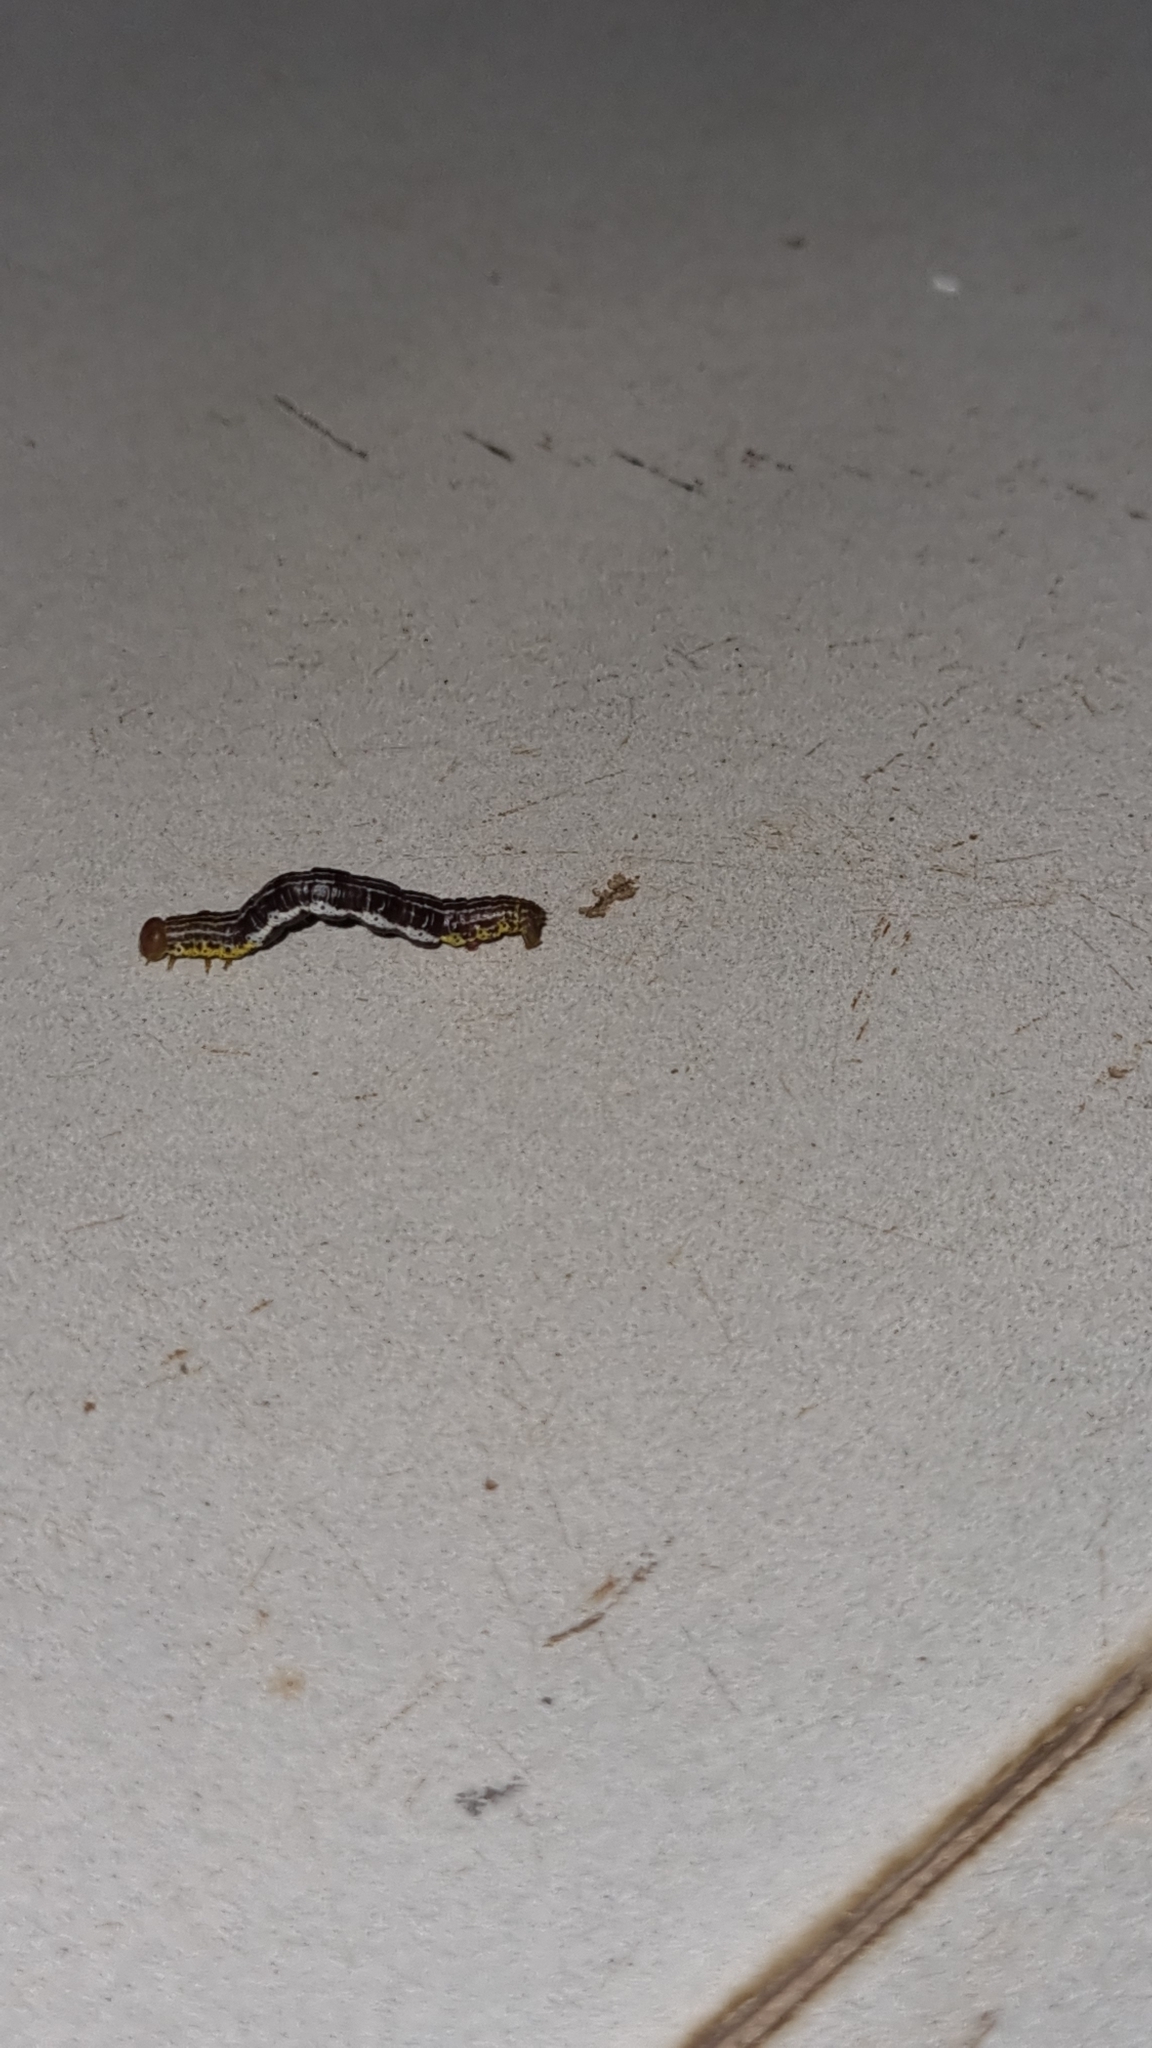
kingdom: Animalia
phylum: Arthropoda
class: Insecta
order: Lepidoptera
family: Geometridae
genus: Chiasmia
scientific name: Chiasmia emersaria
